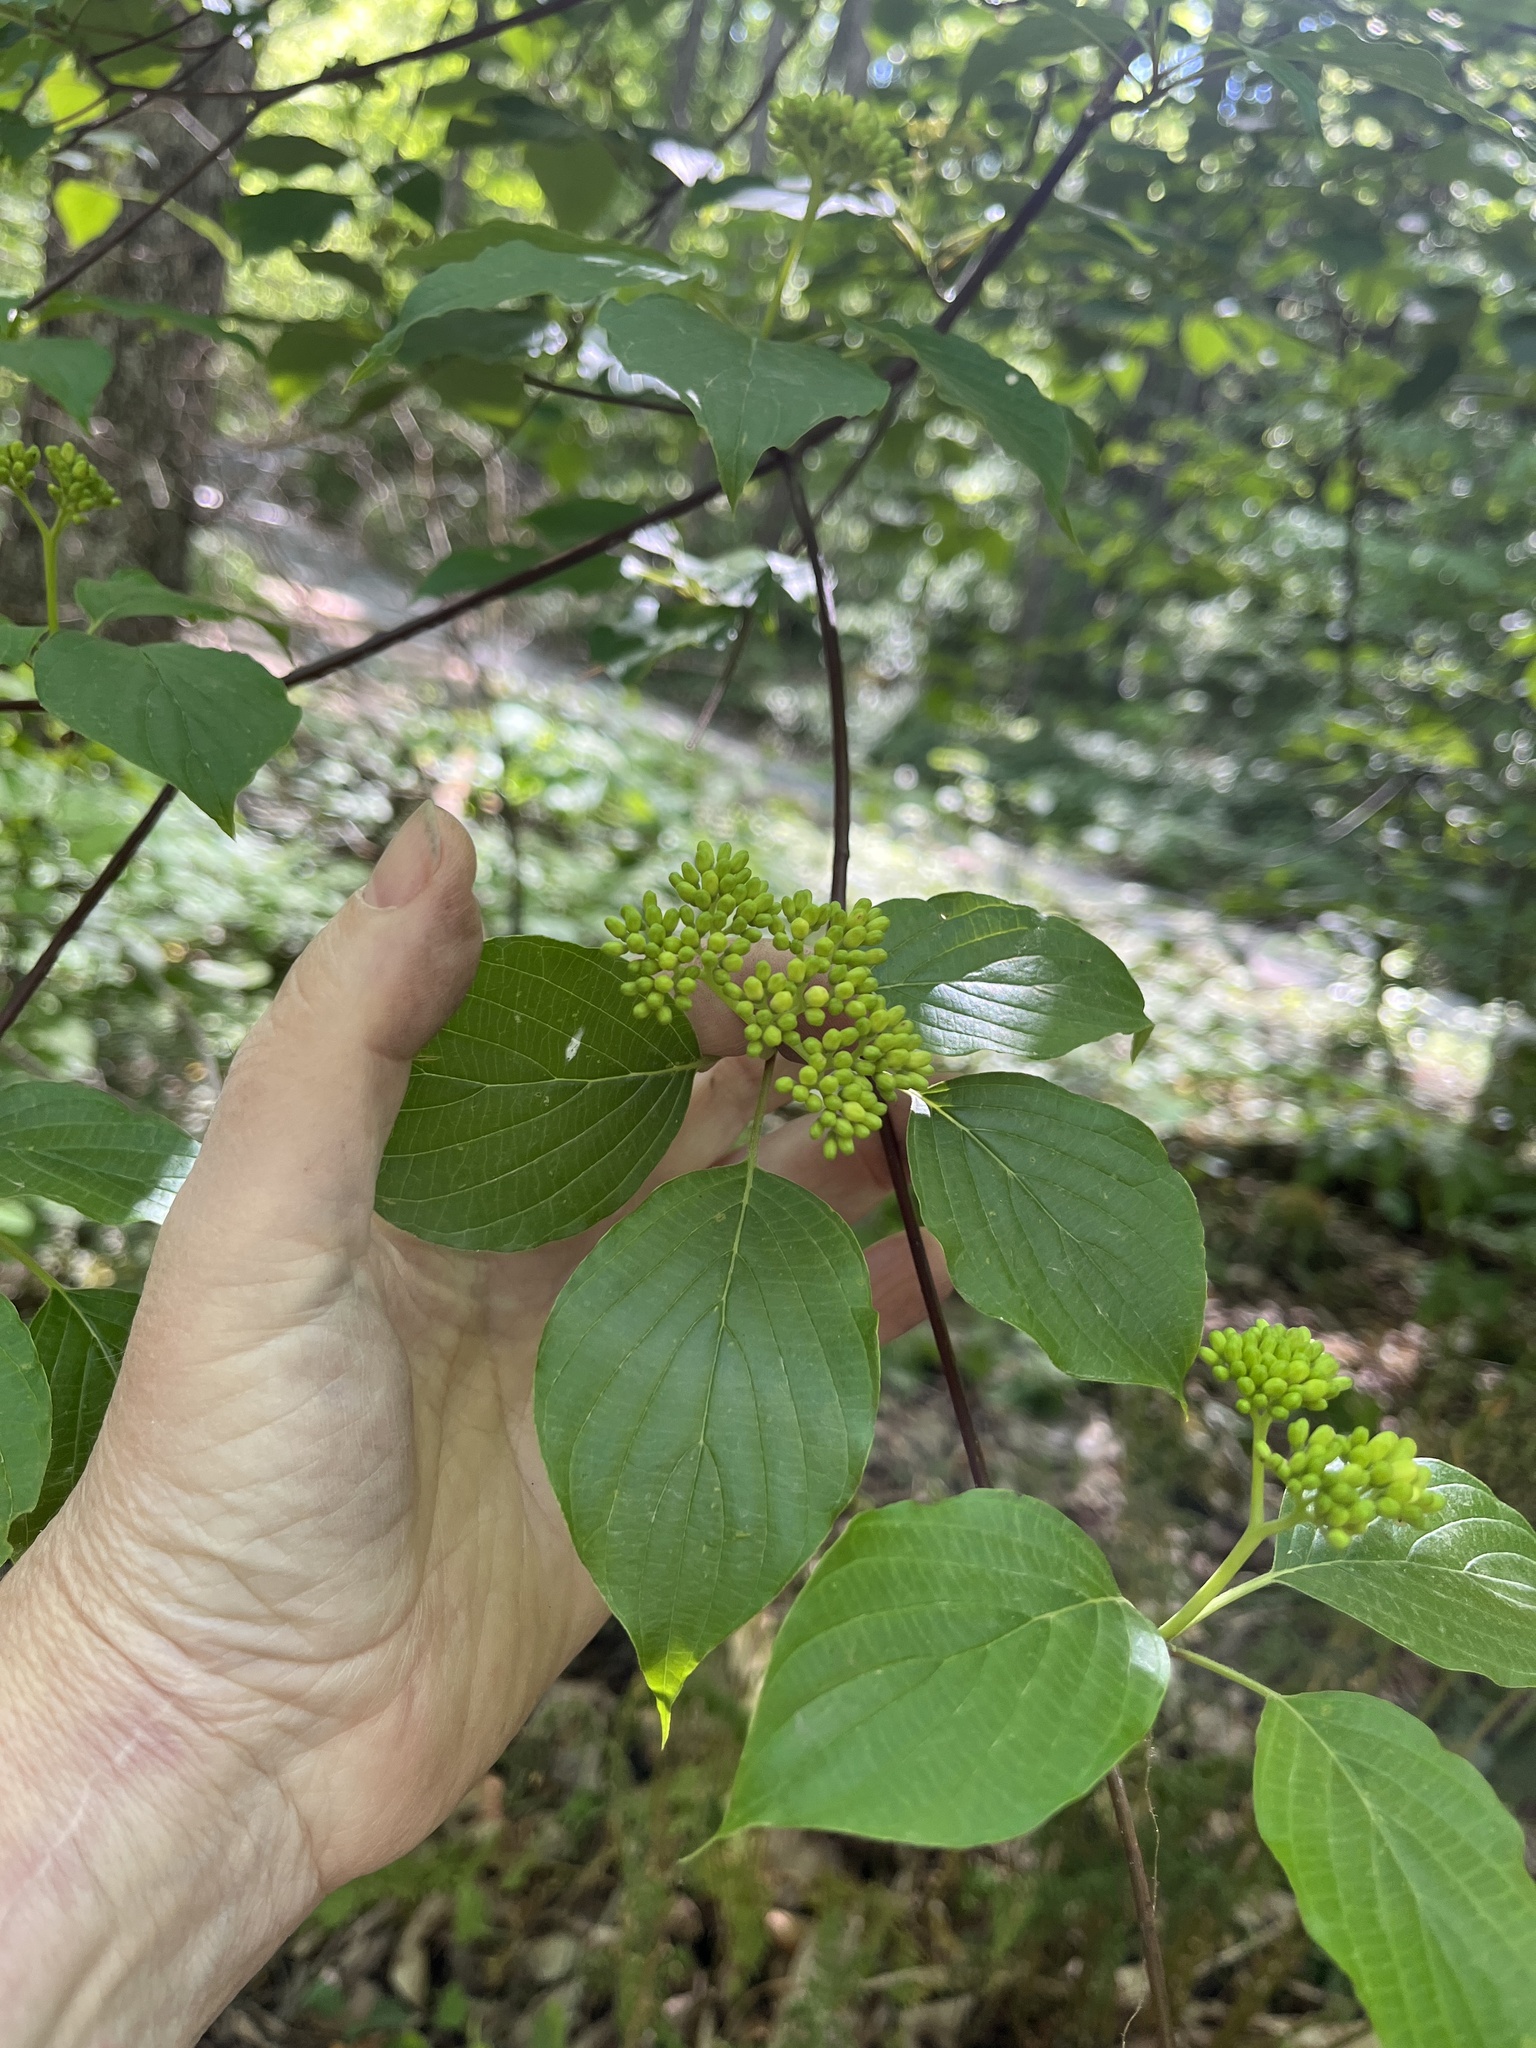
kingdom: Plantae
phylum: Tracheophyta
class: Magnoliopsida
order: Cornales
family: Cornaceae
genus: Cornus
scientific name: Cornus alternifolia
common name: Pagoda dogwood
